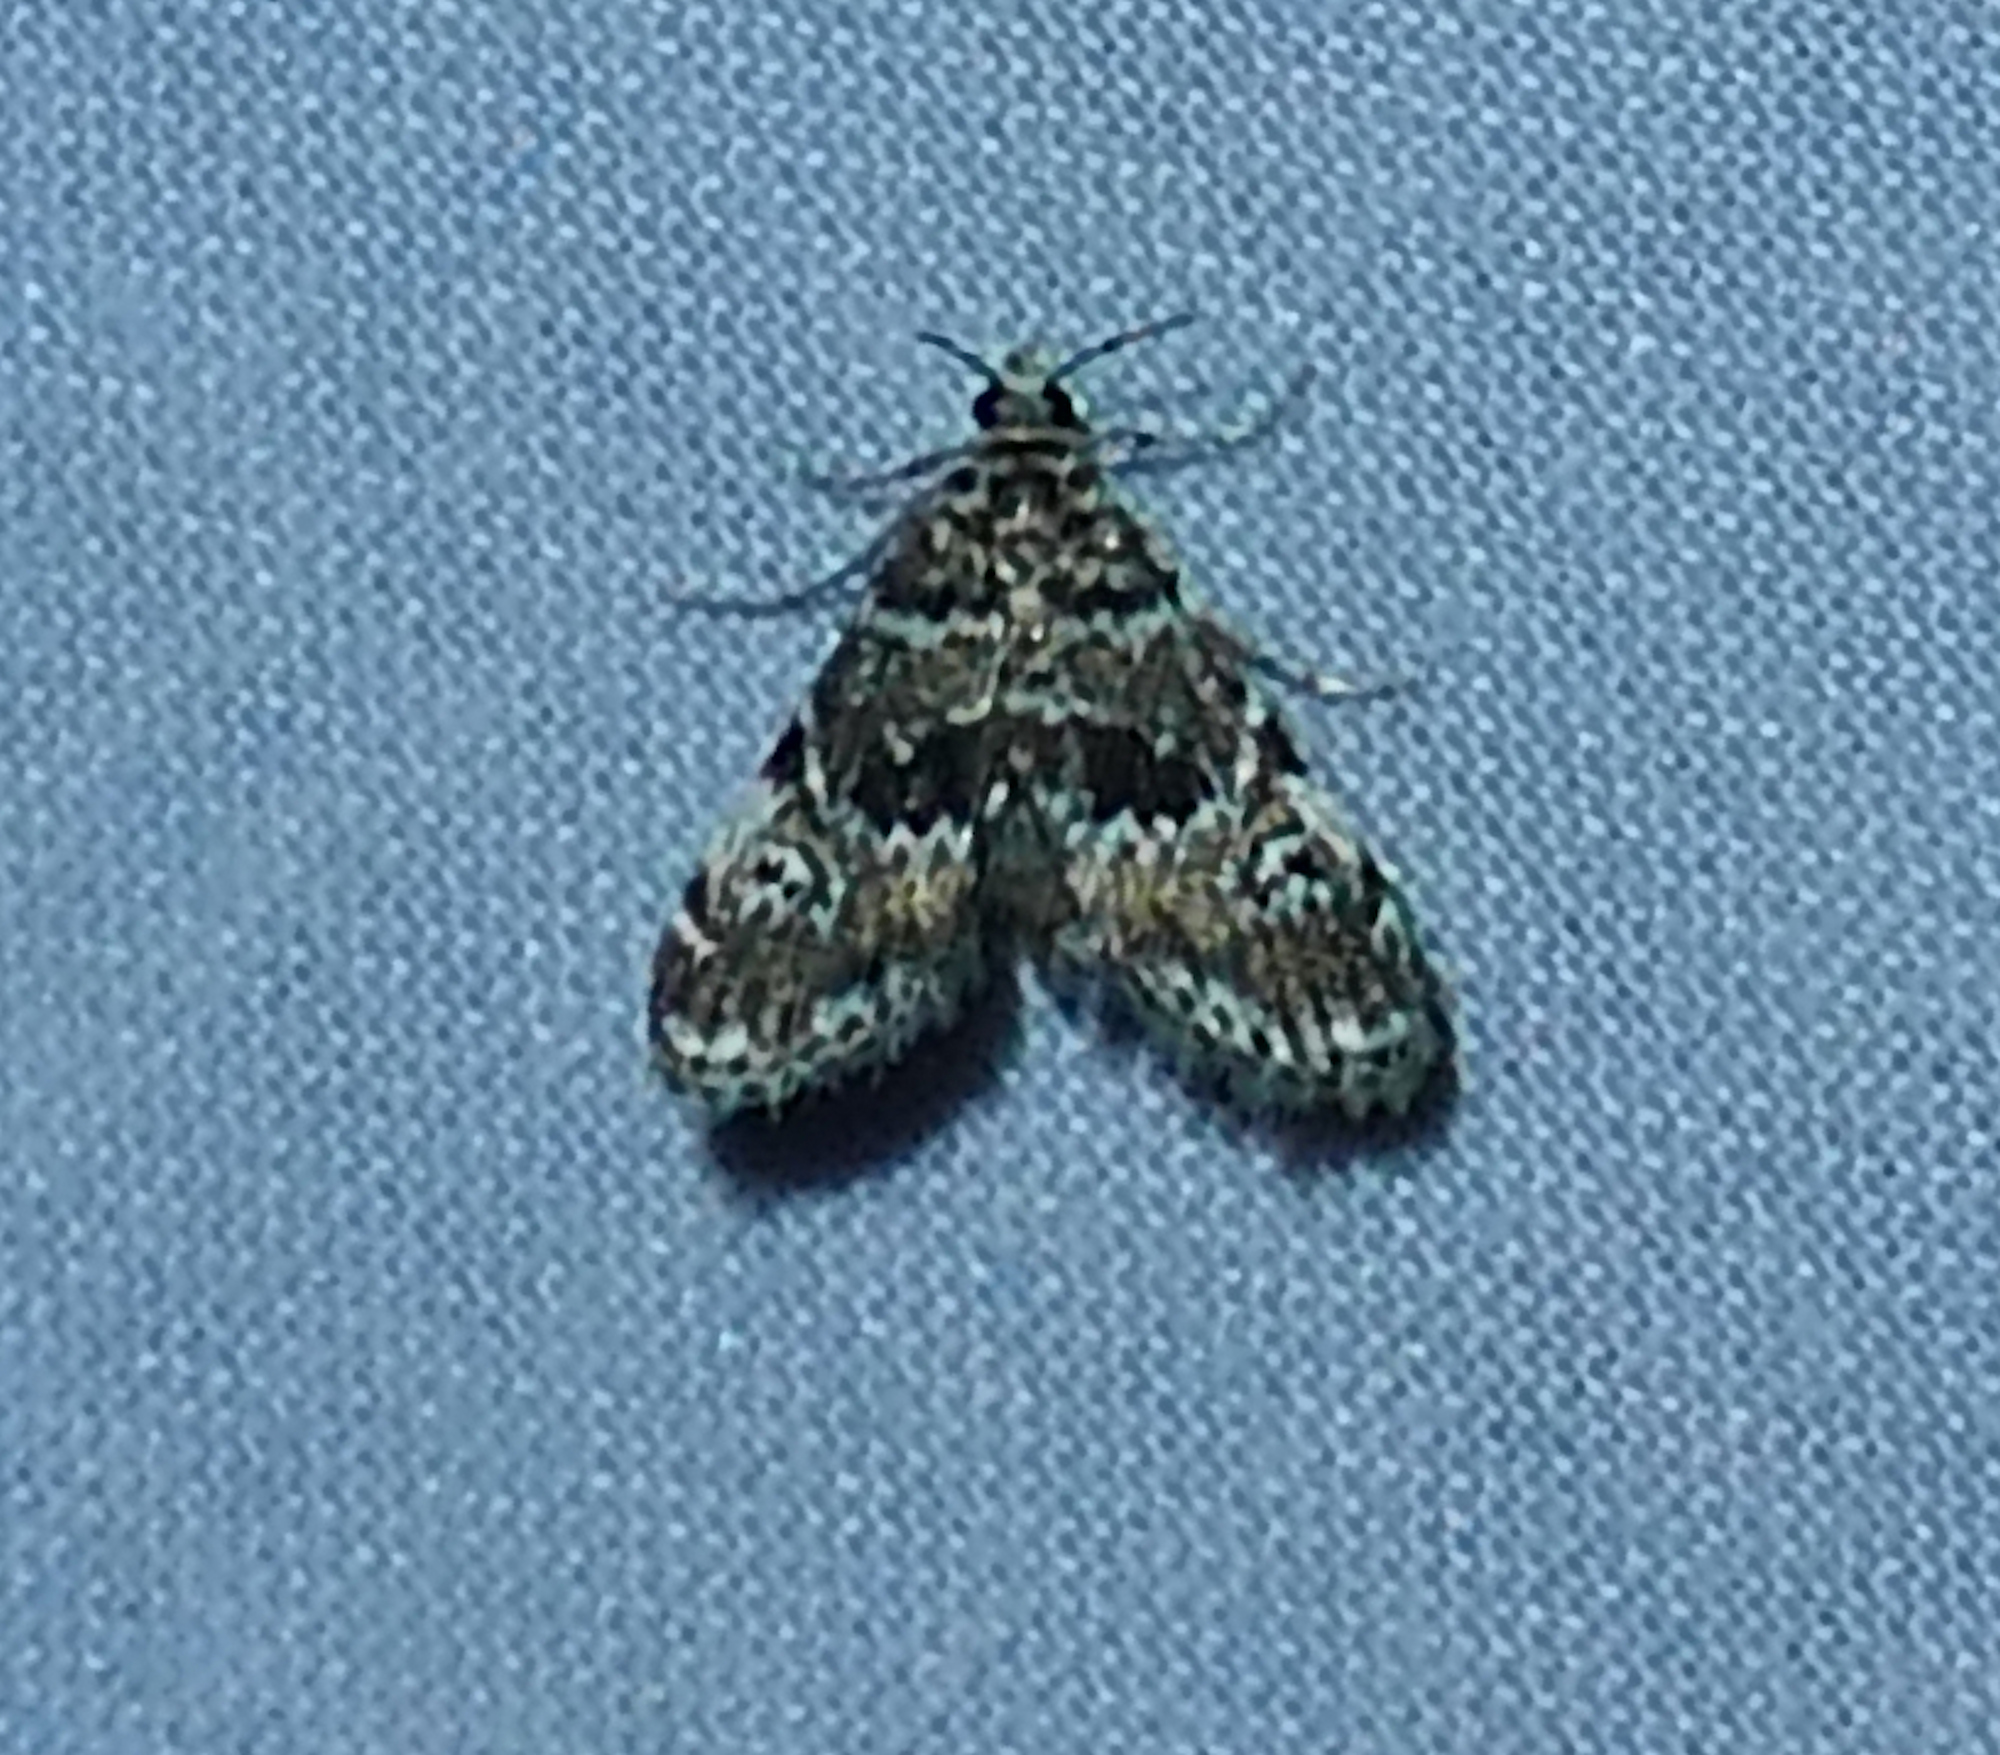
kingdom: Animalia
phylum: Arthropoda
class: Insecta
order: Lepidoptera
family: Crambidae
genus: Elophila
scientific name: Elophila obliteralis
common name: Waterlily leafcutter moth
